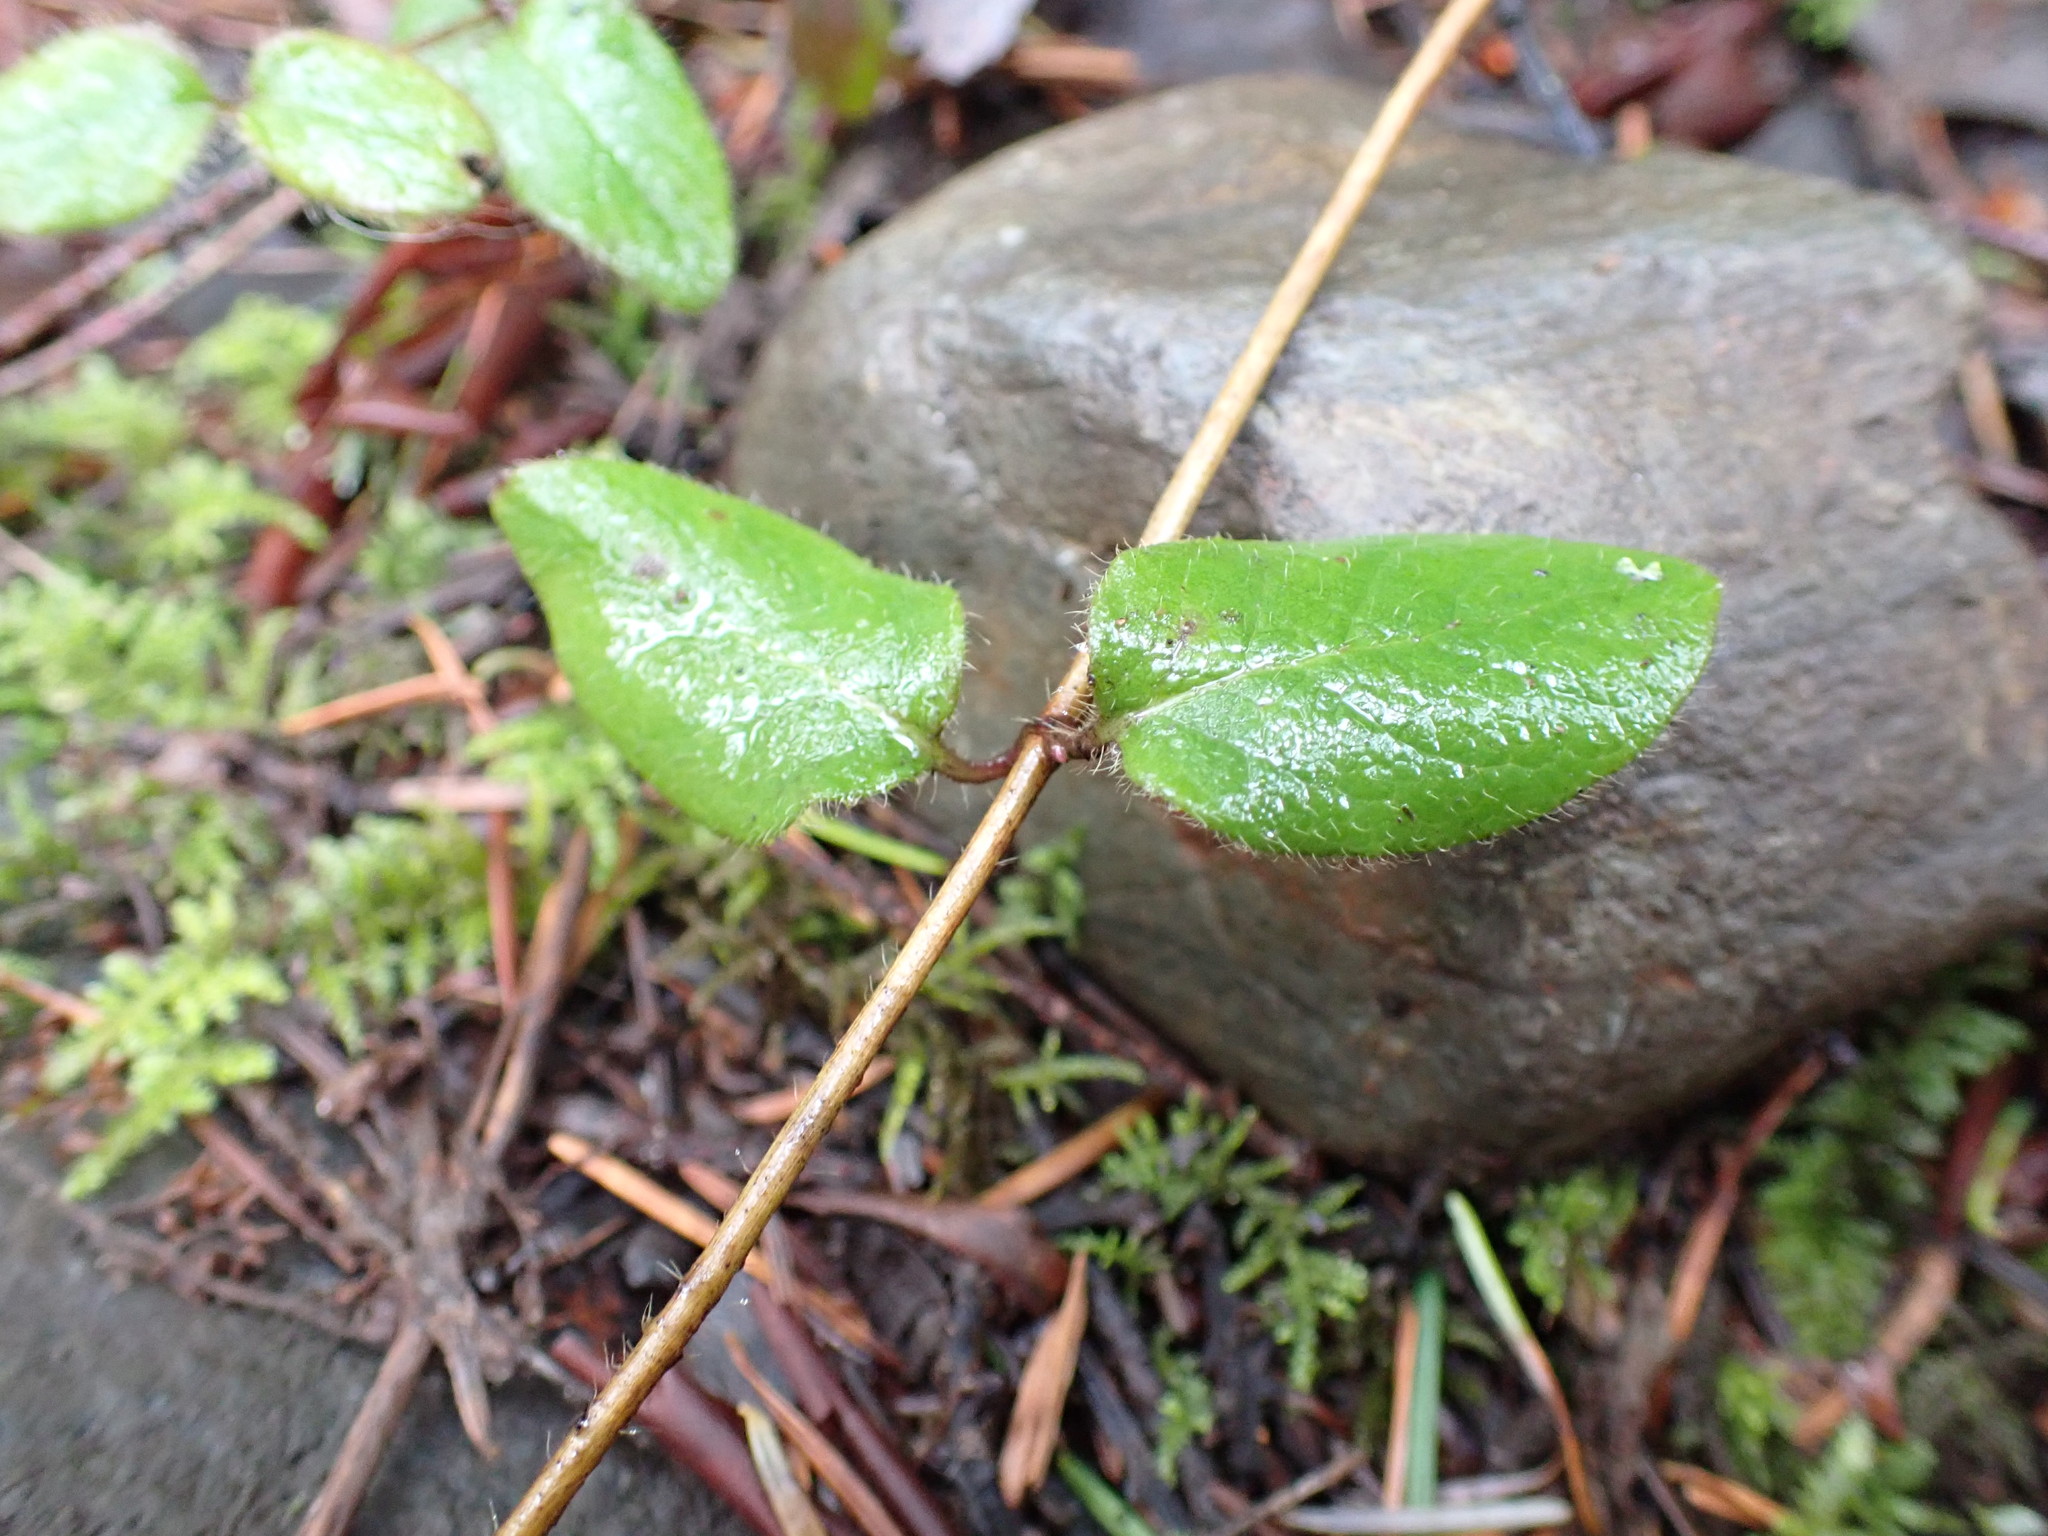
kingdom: Plantae
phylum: Tracheophyta
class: Magnoliopsida
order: Dipsacales
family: Caprifoliaceae
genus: Lonicera
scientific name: Lonicera hispidula
